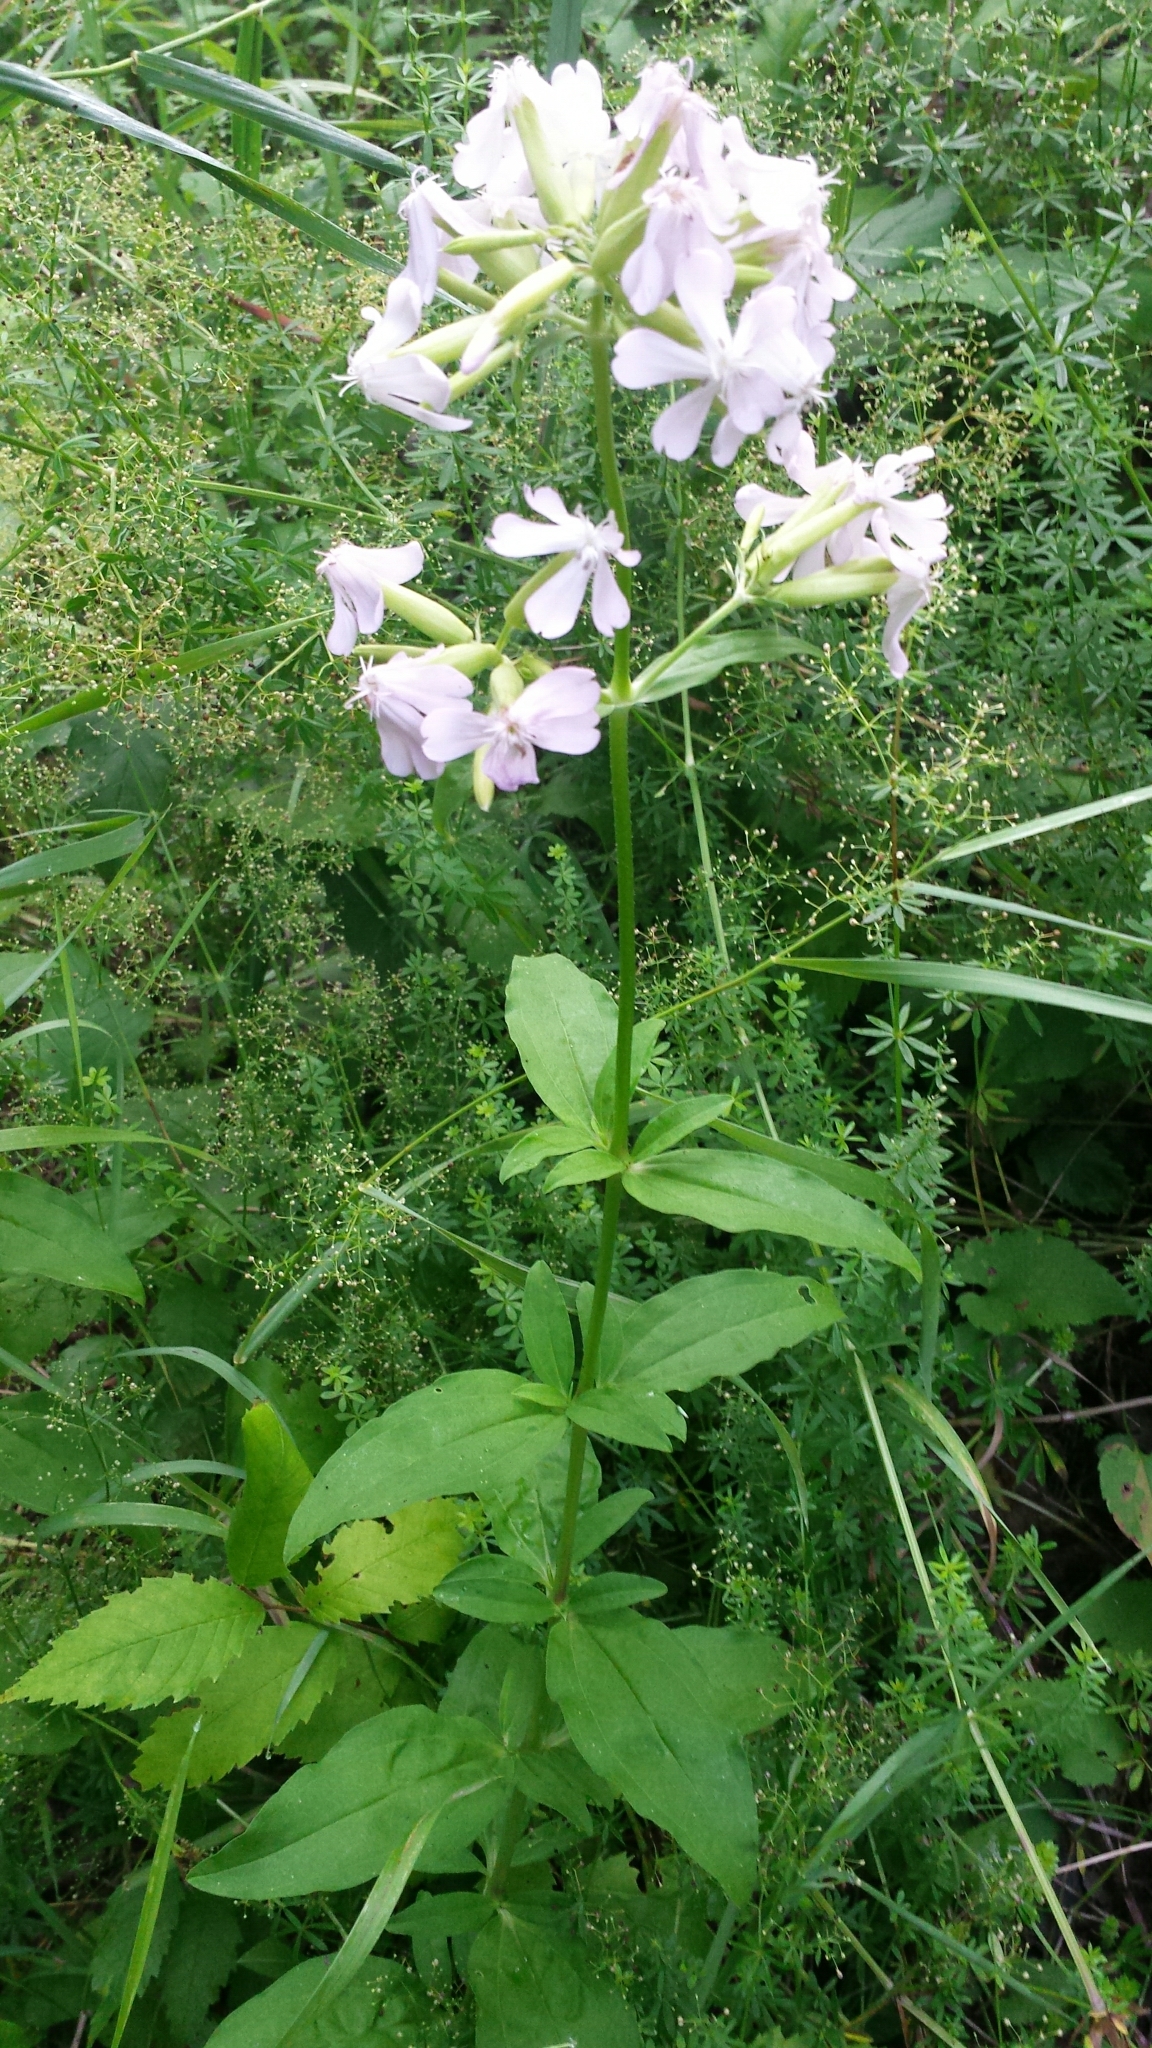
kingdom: Plantae
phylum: Tracheophyta
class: Magnoliopsida
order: Caryophyllales
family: Caryophyllaceae
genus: Saponaria
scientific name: Saponaria officinalis
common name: Soapwort
